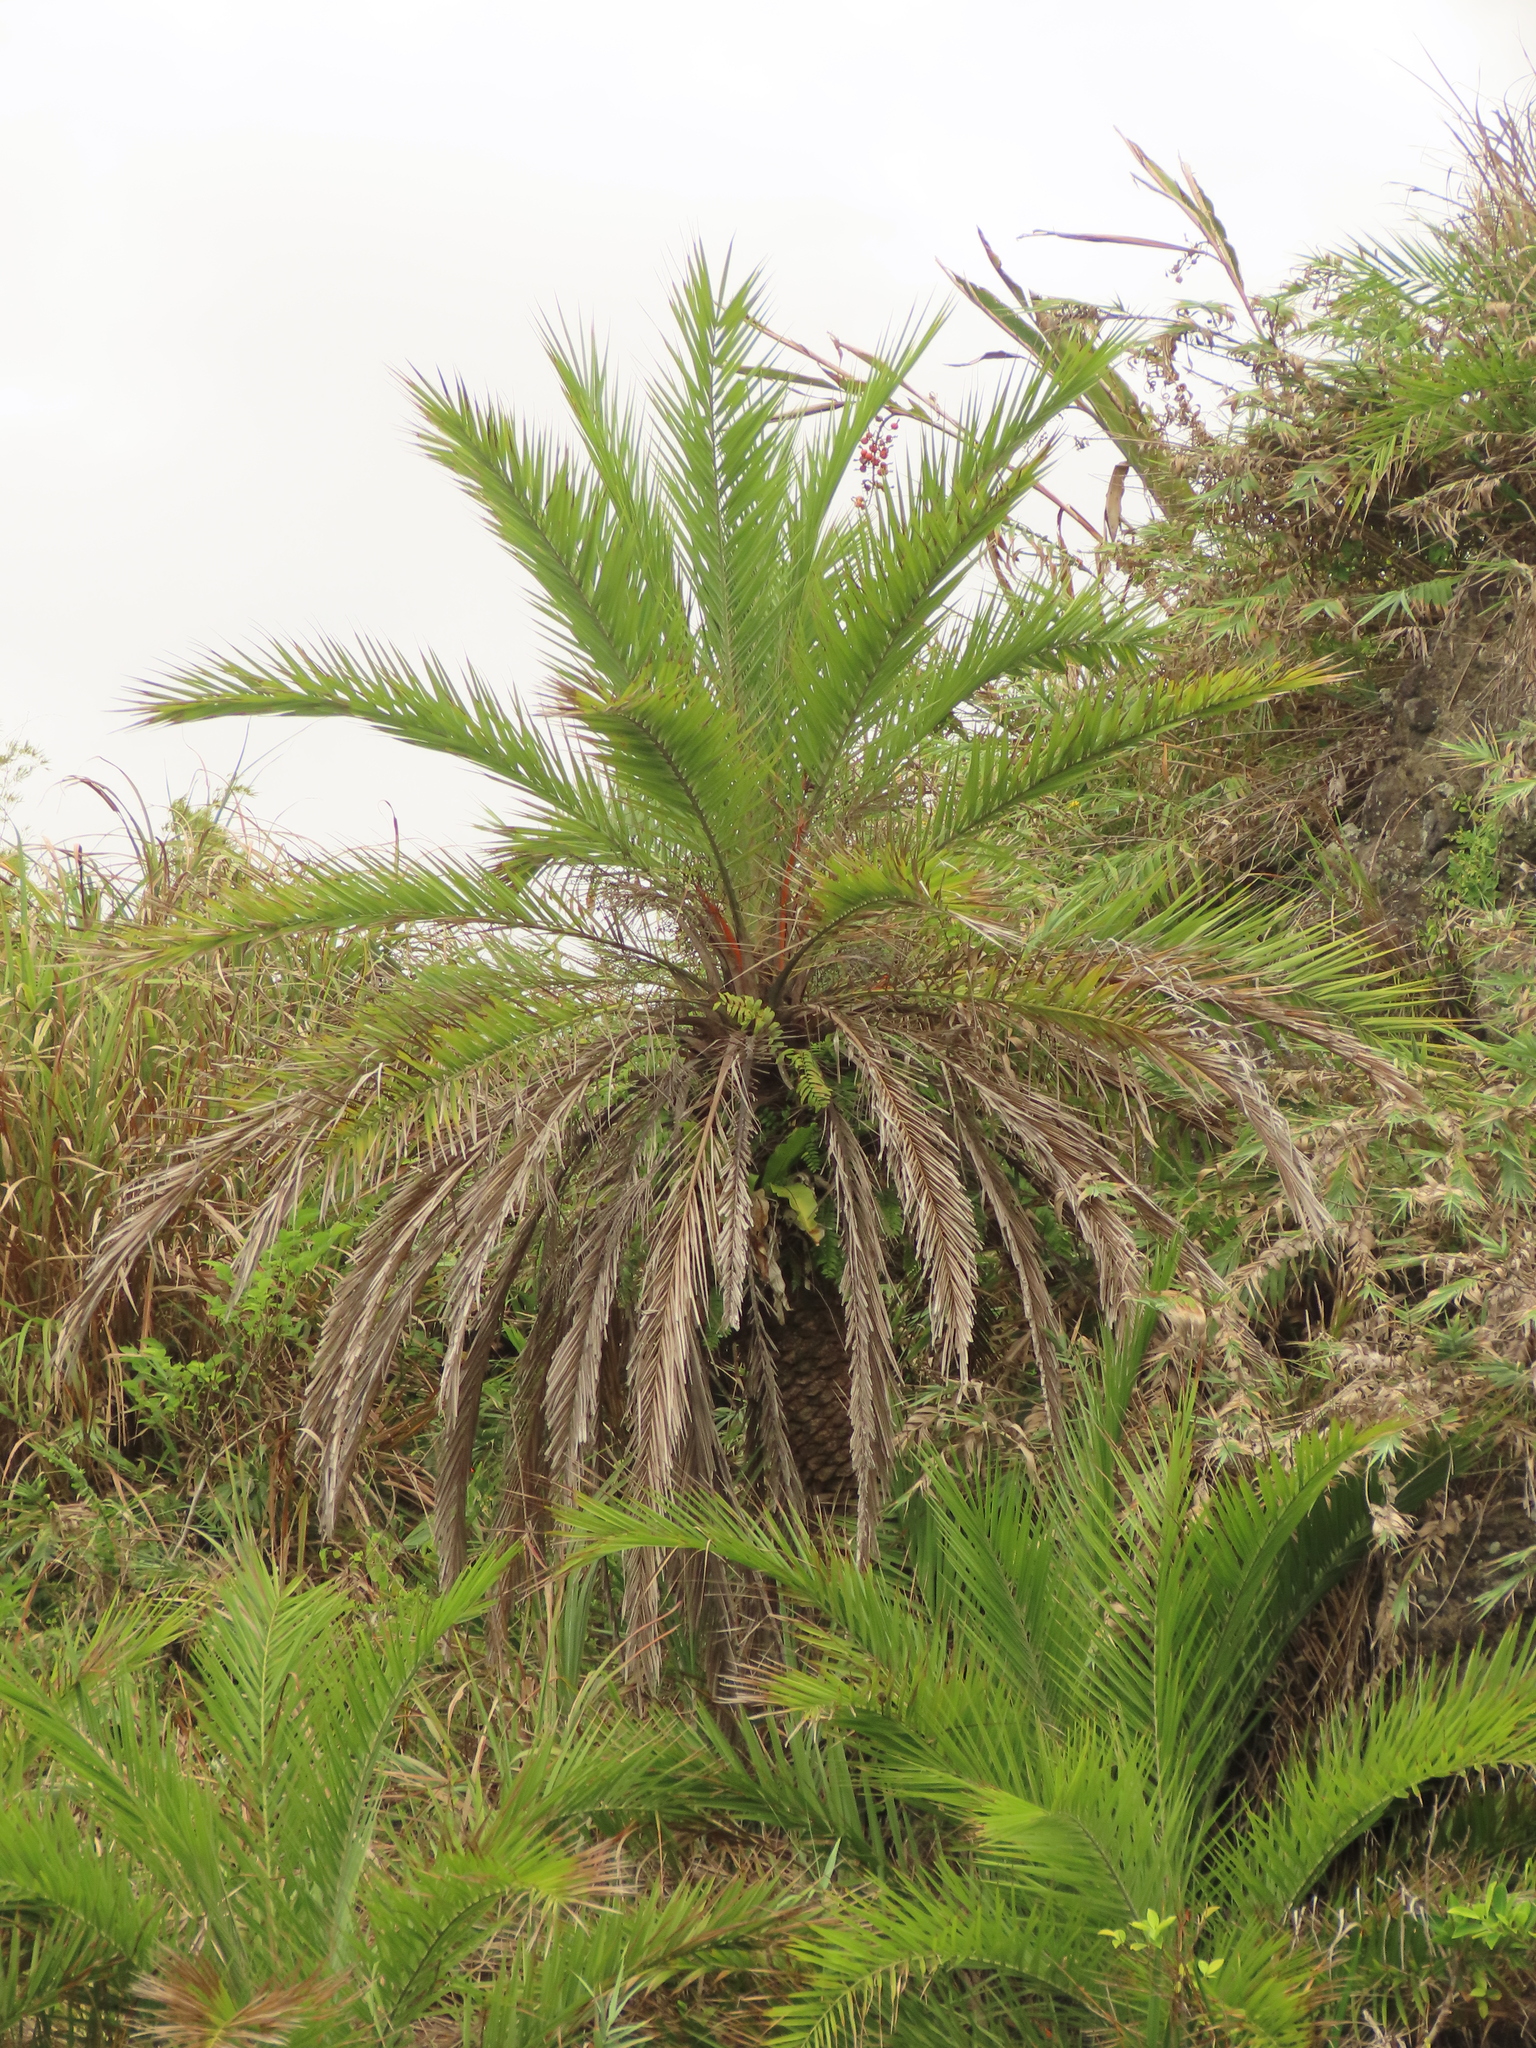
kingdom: Plantae
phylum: Tracheophyta
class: Liliopsida
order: Arecales
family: Arecaceae
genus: Phoenix
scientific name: Phoenix loureiroi
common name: Loureiro's palm
